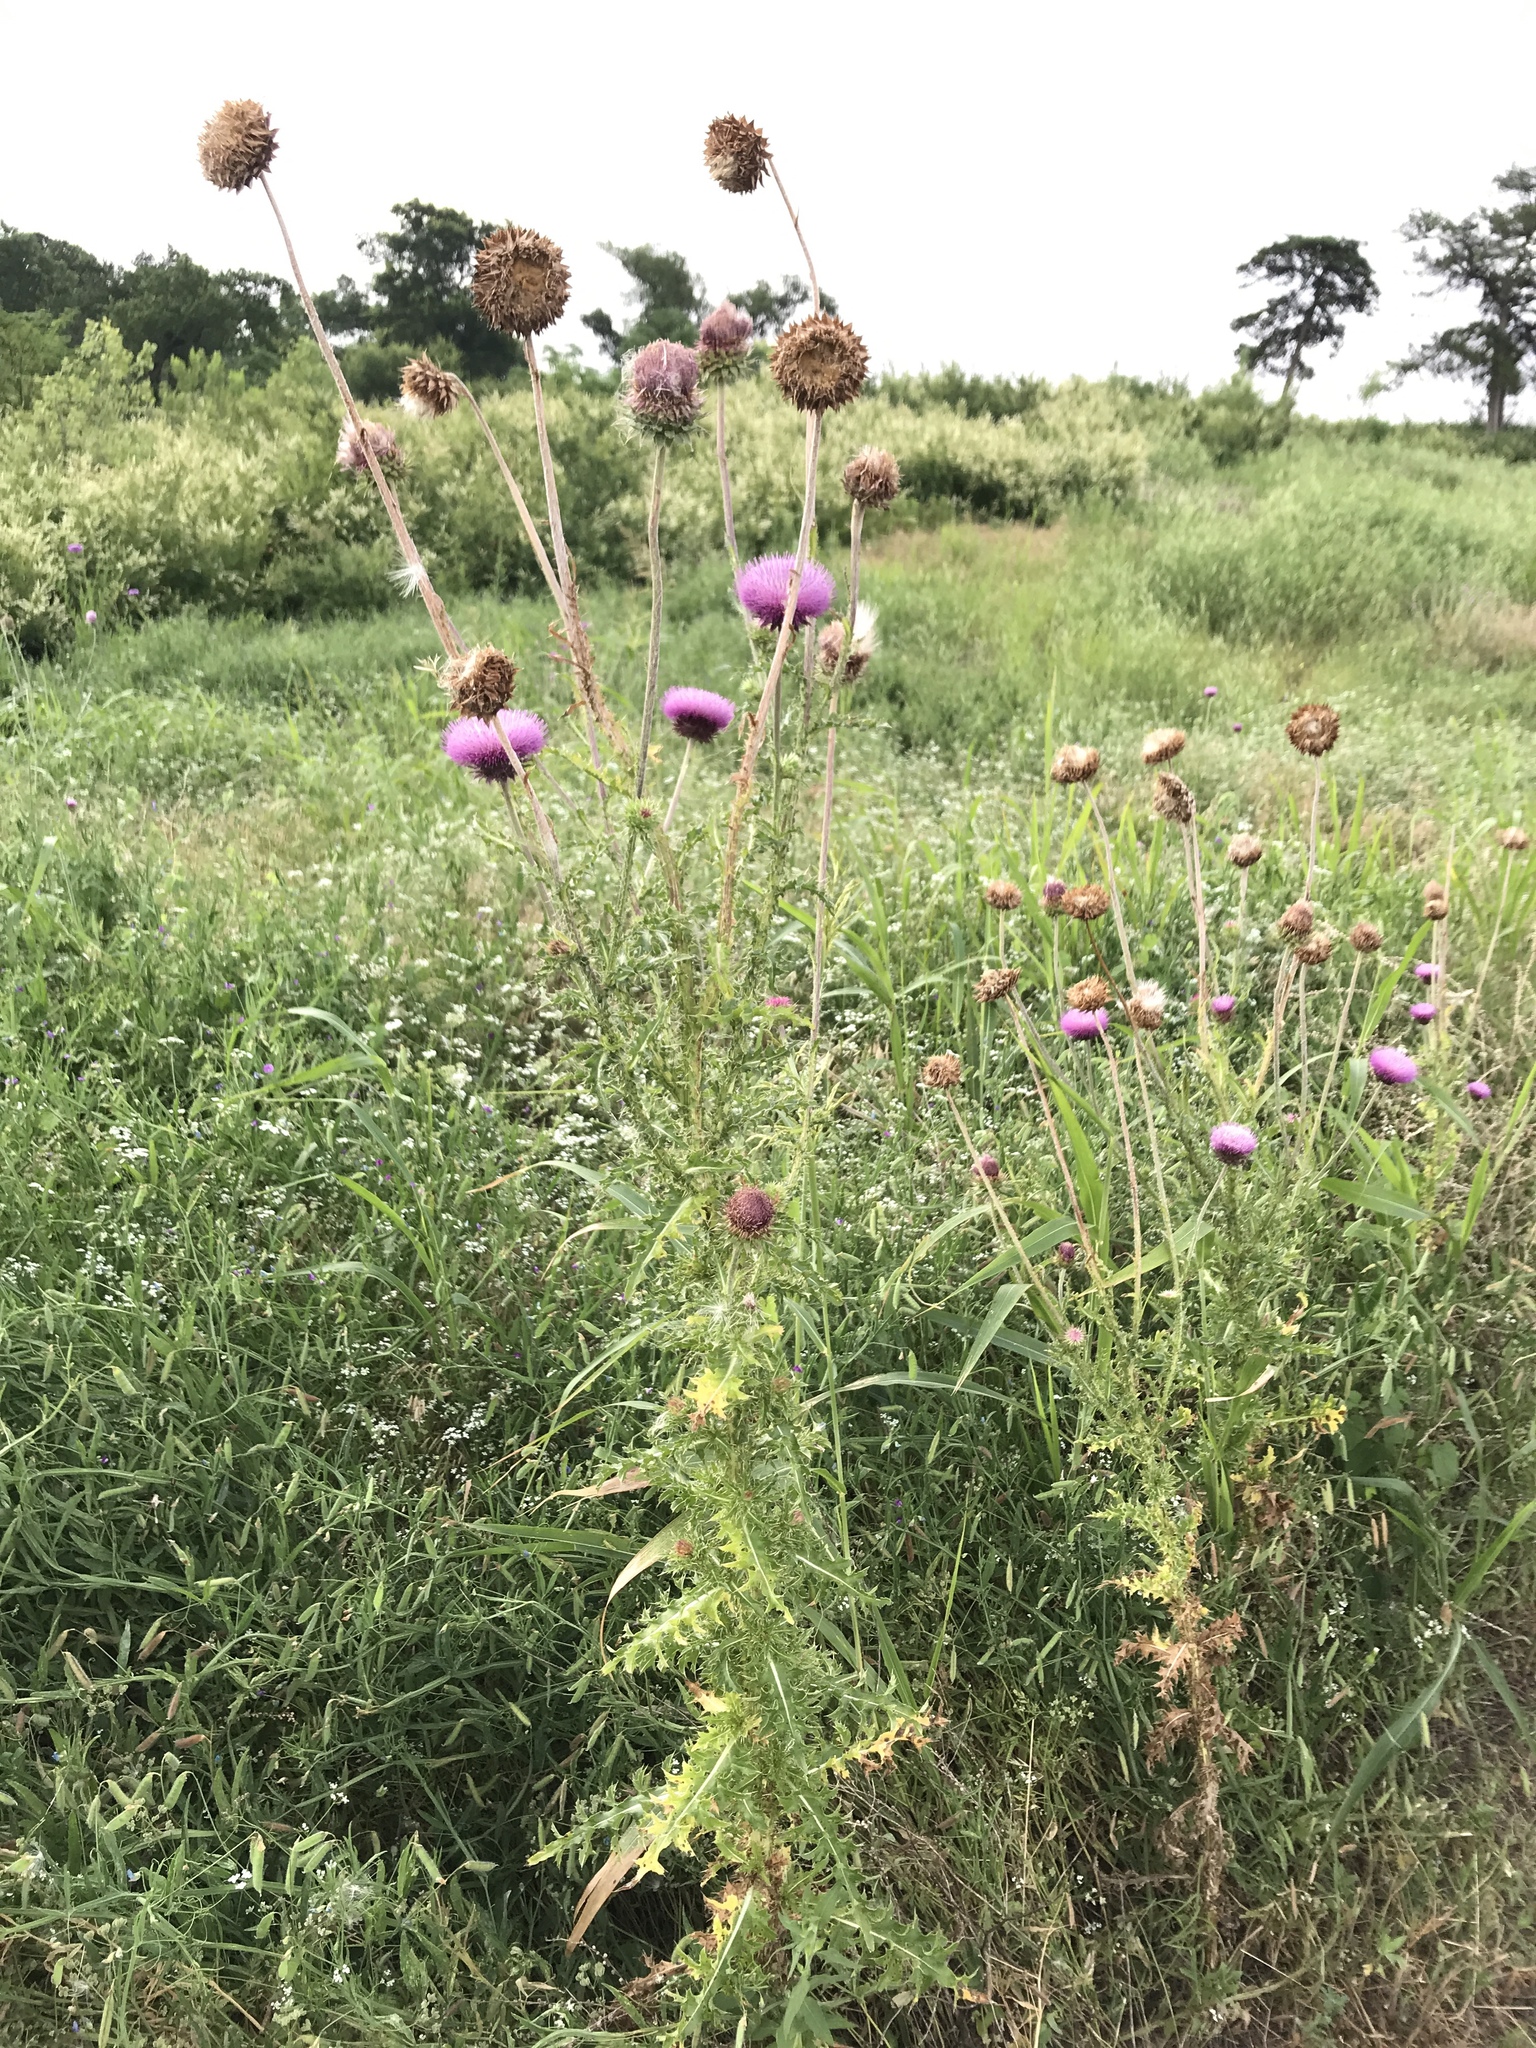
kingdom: Plantae
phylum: Tracheophyta
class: Magnoliopsida
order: Asterales
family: Asteraceae
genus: Carduus
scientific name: Carduus nutans
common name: Musk thistle
